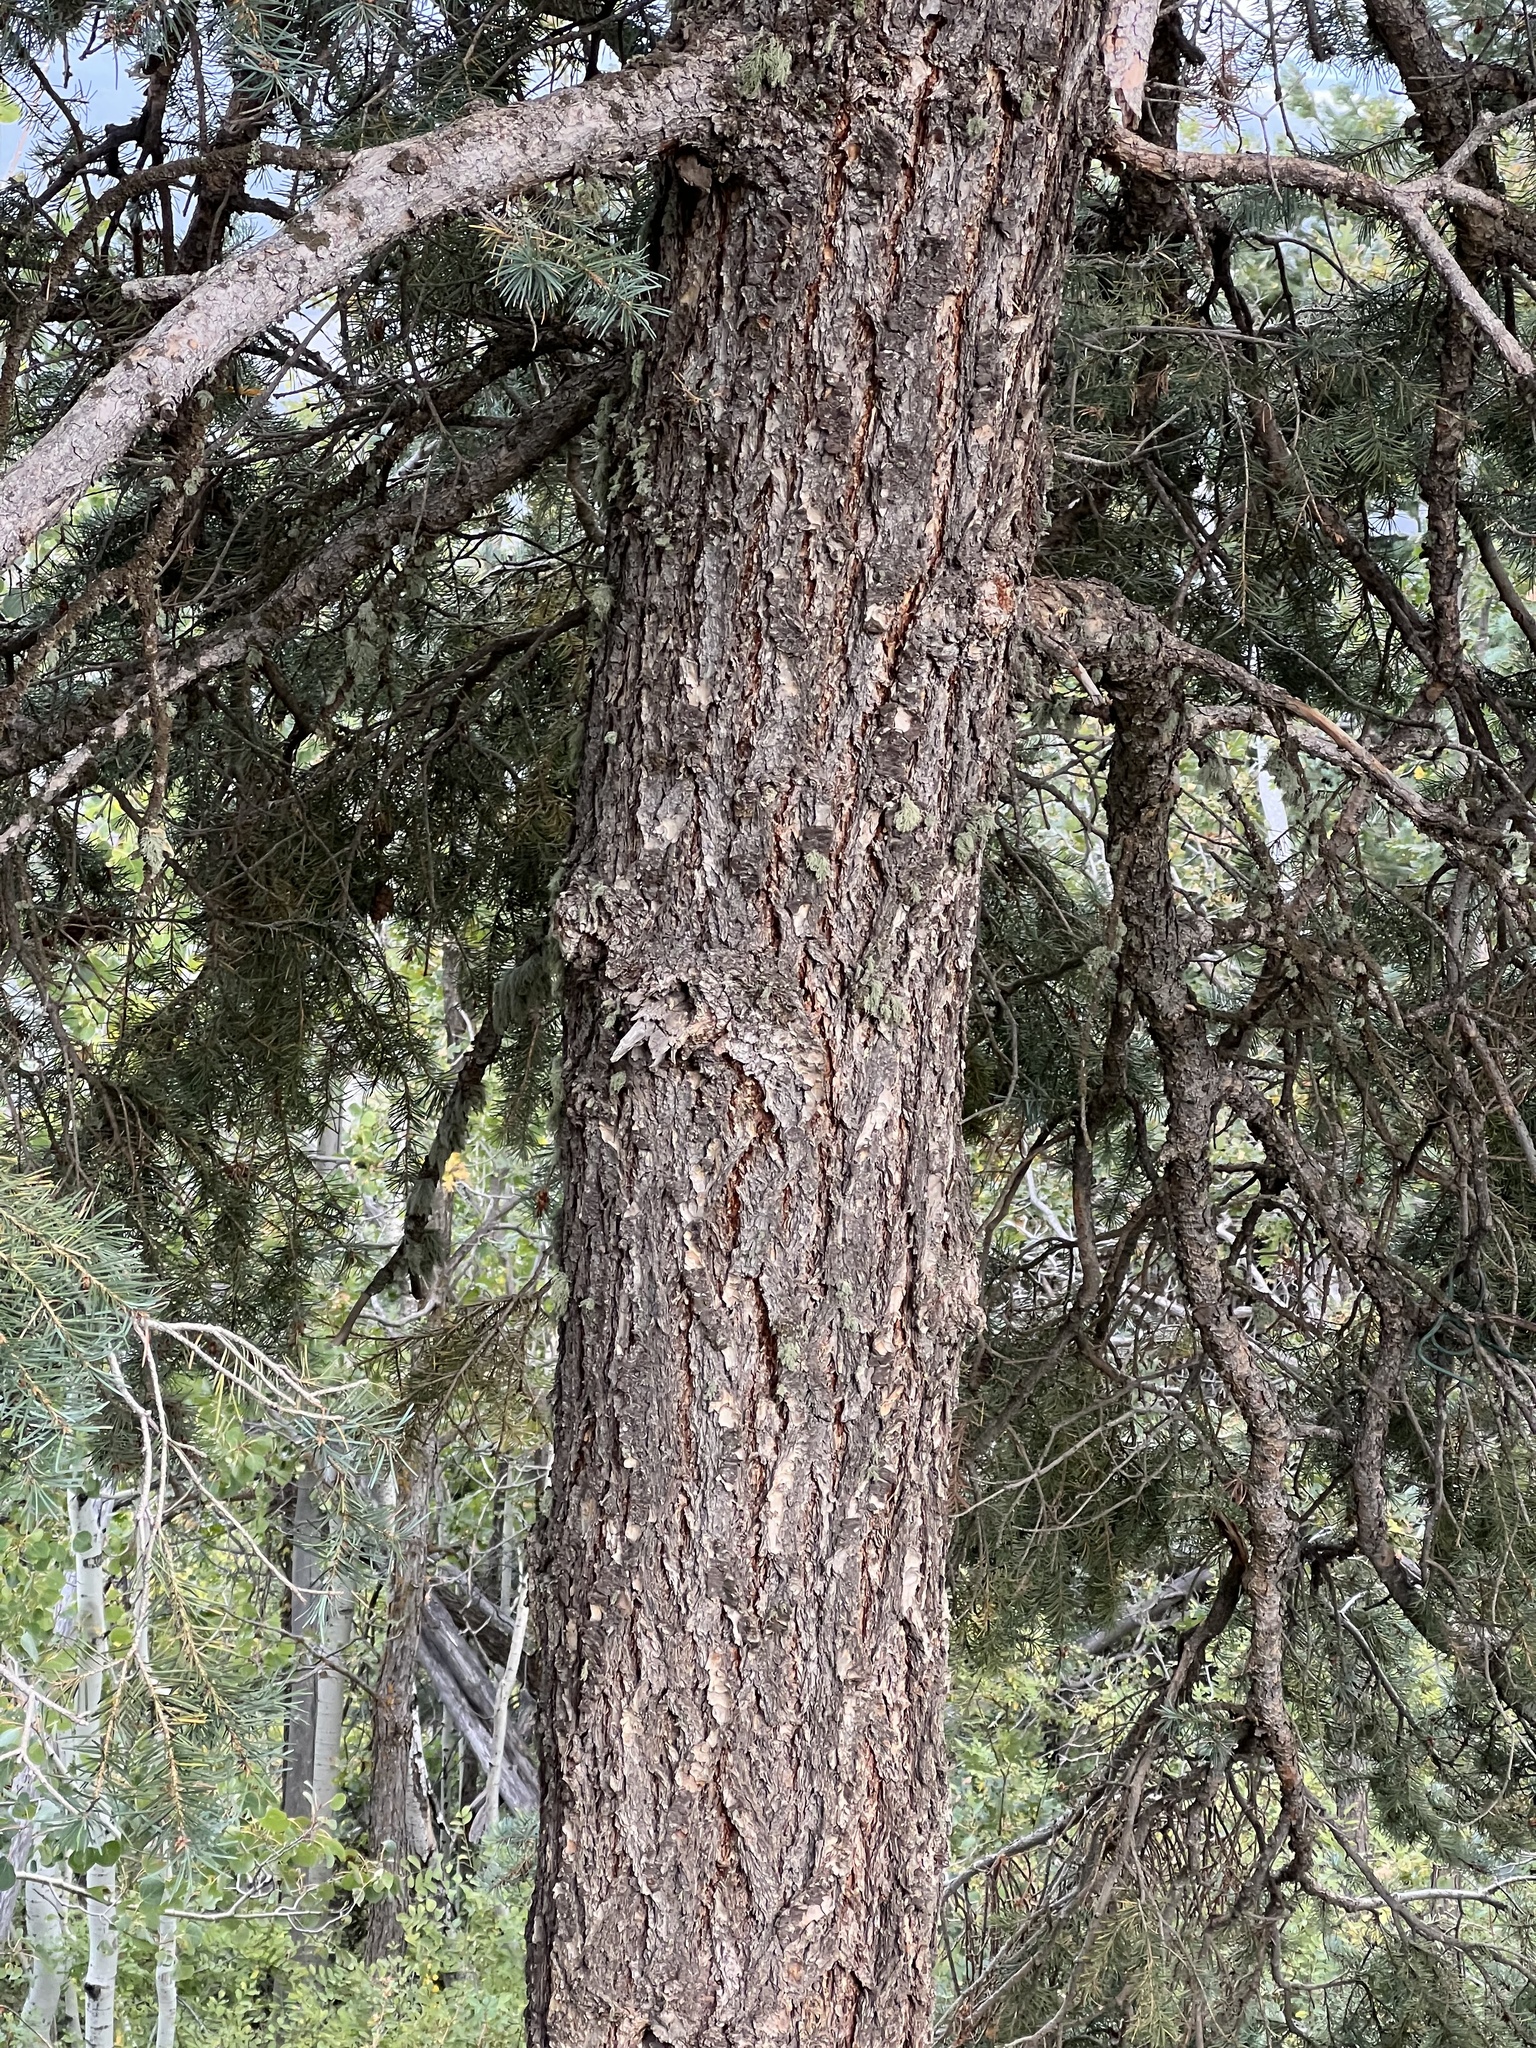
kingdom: Plantae
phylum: Tracheophyta
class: Pinopsida
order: Pinales
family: Pinaceae
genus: Pseudotsuga
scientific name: Pseudotsuga menziesii
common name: Douglas fir
